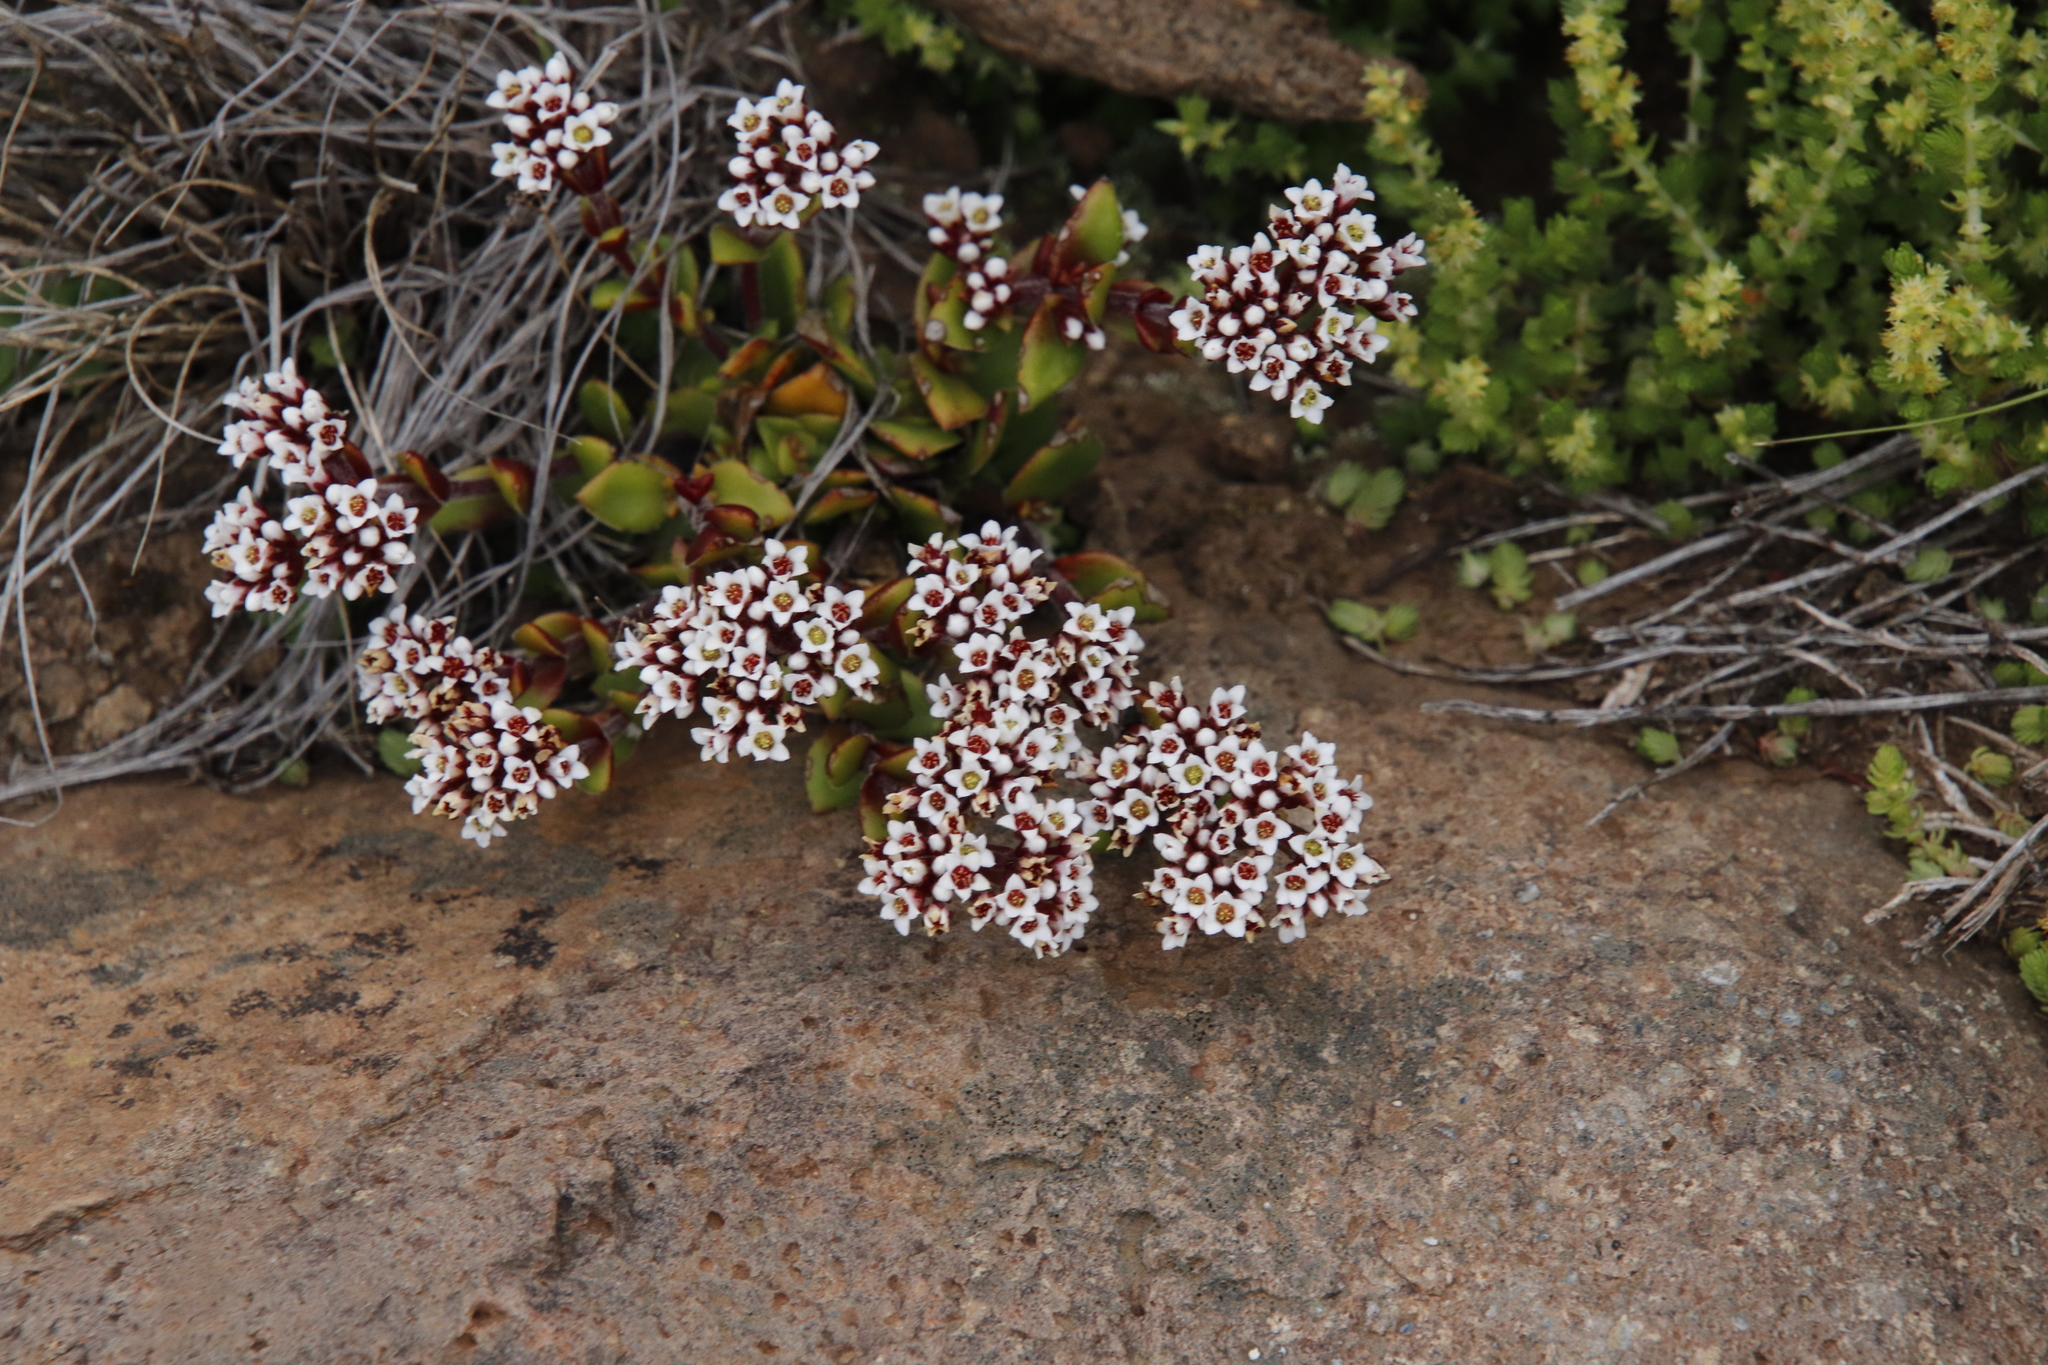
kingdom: Plantae
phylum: Tracheophyta
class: Magnoliopsida
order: Saxifragales
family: Crassulaceae
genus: Crassula
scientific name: Crassula natalensis
